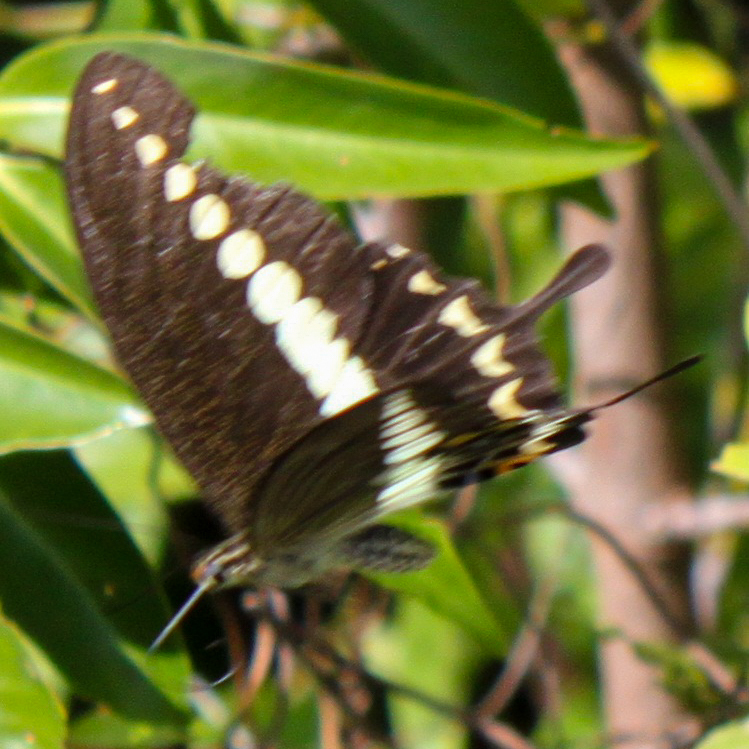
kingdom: Animalia
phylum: Arthropoda
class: Insecta
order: Lepidoptera
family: Papilionidae
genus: Papilio
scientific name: Papilio demolion
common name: Banded swallowtail
